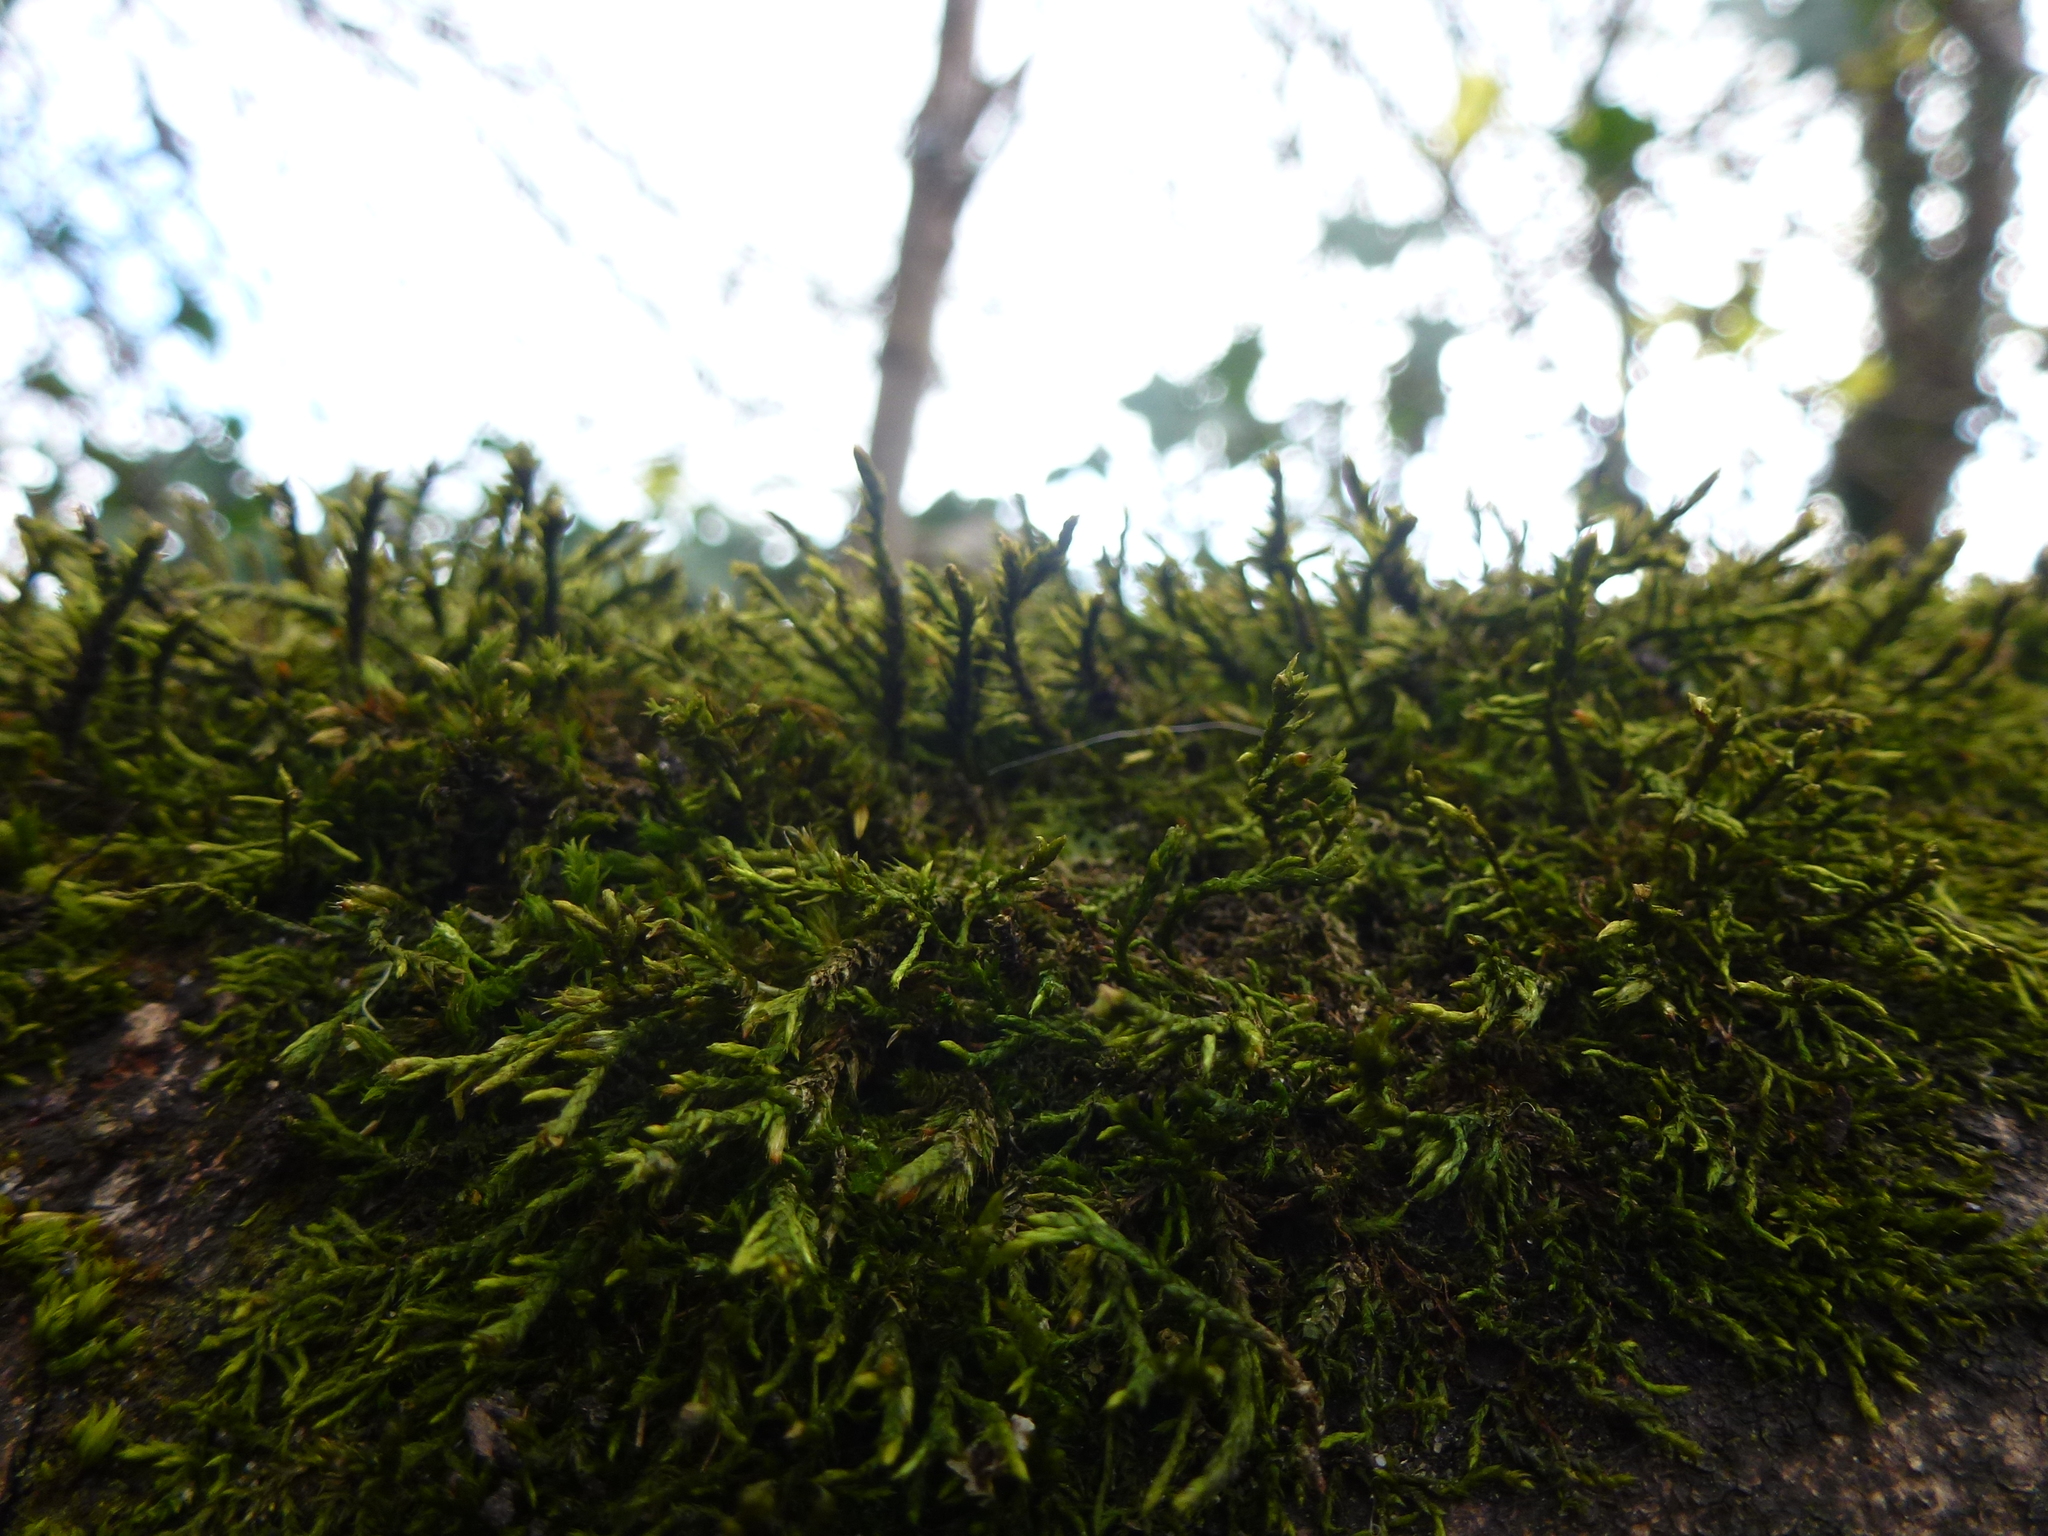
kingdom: Plantae
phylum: Bryophyta
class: Bryopsida
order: Hypnales
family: Cryphaeaceae
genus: Cryphaea
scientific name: Cryphaea heteromalla
